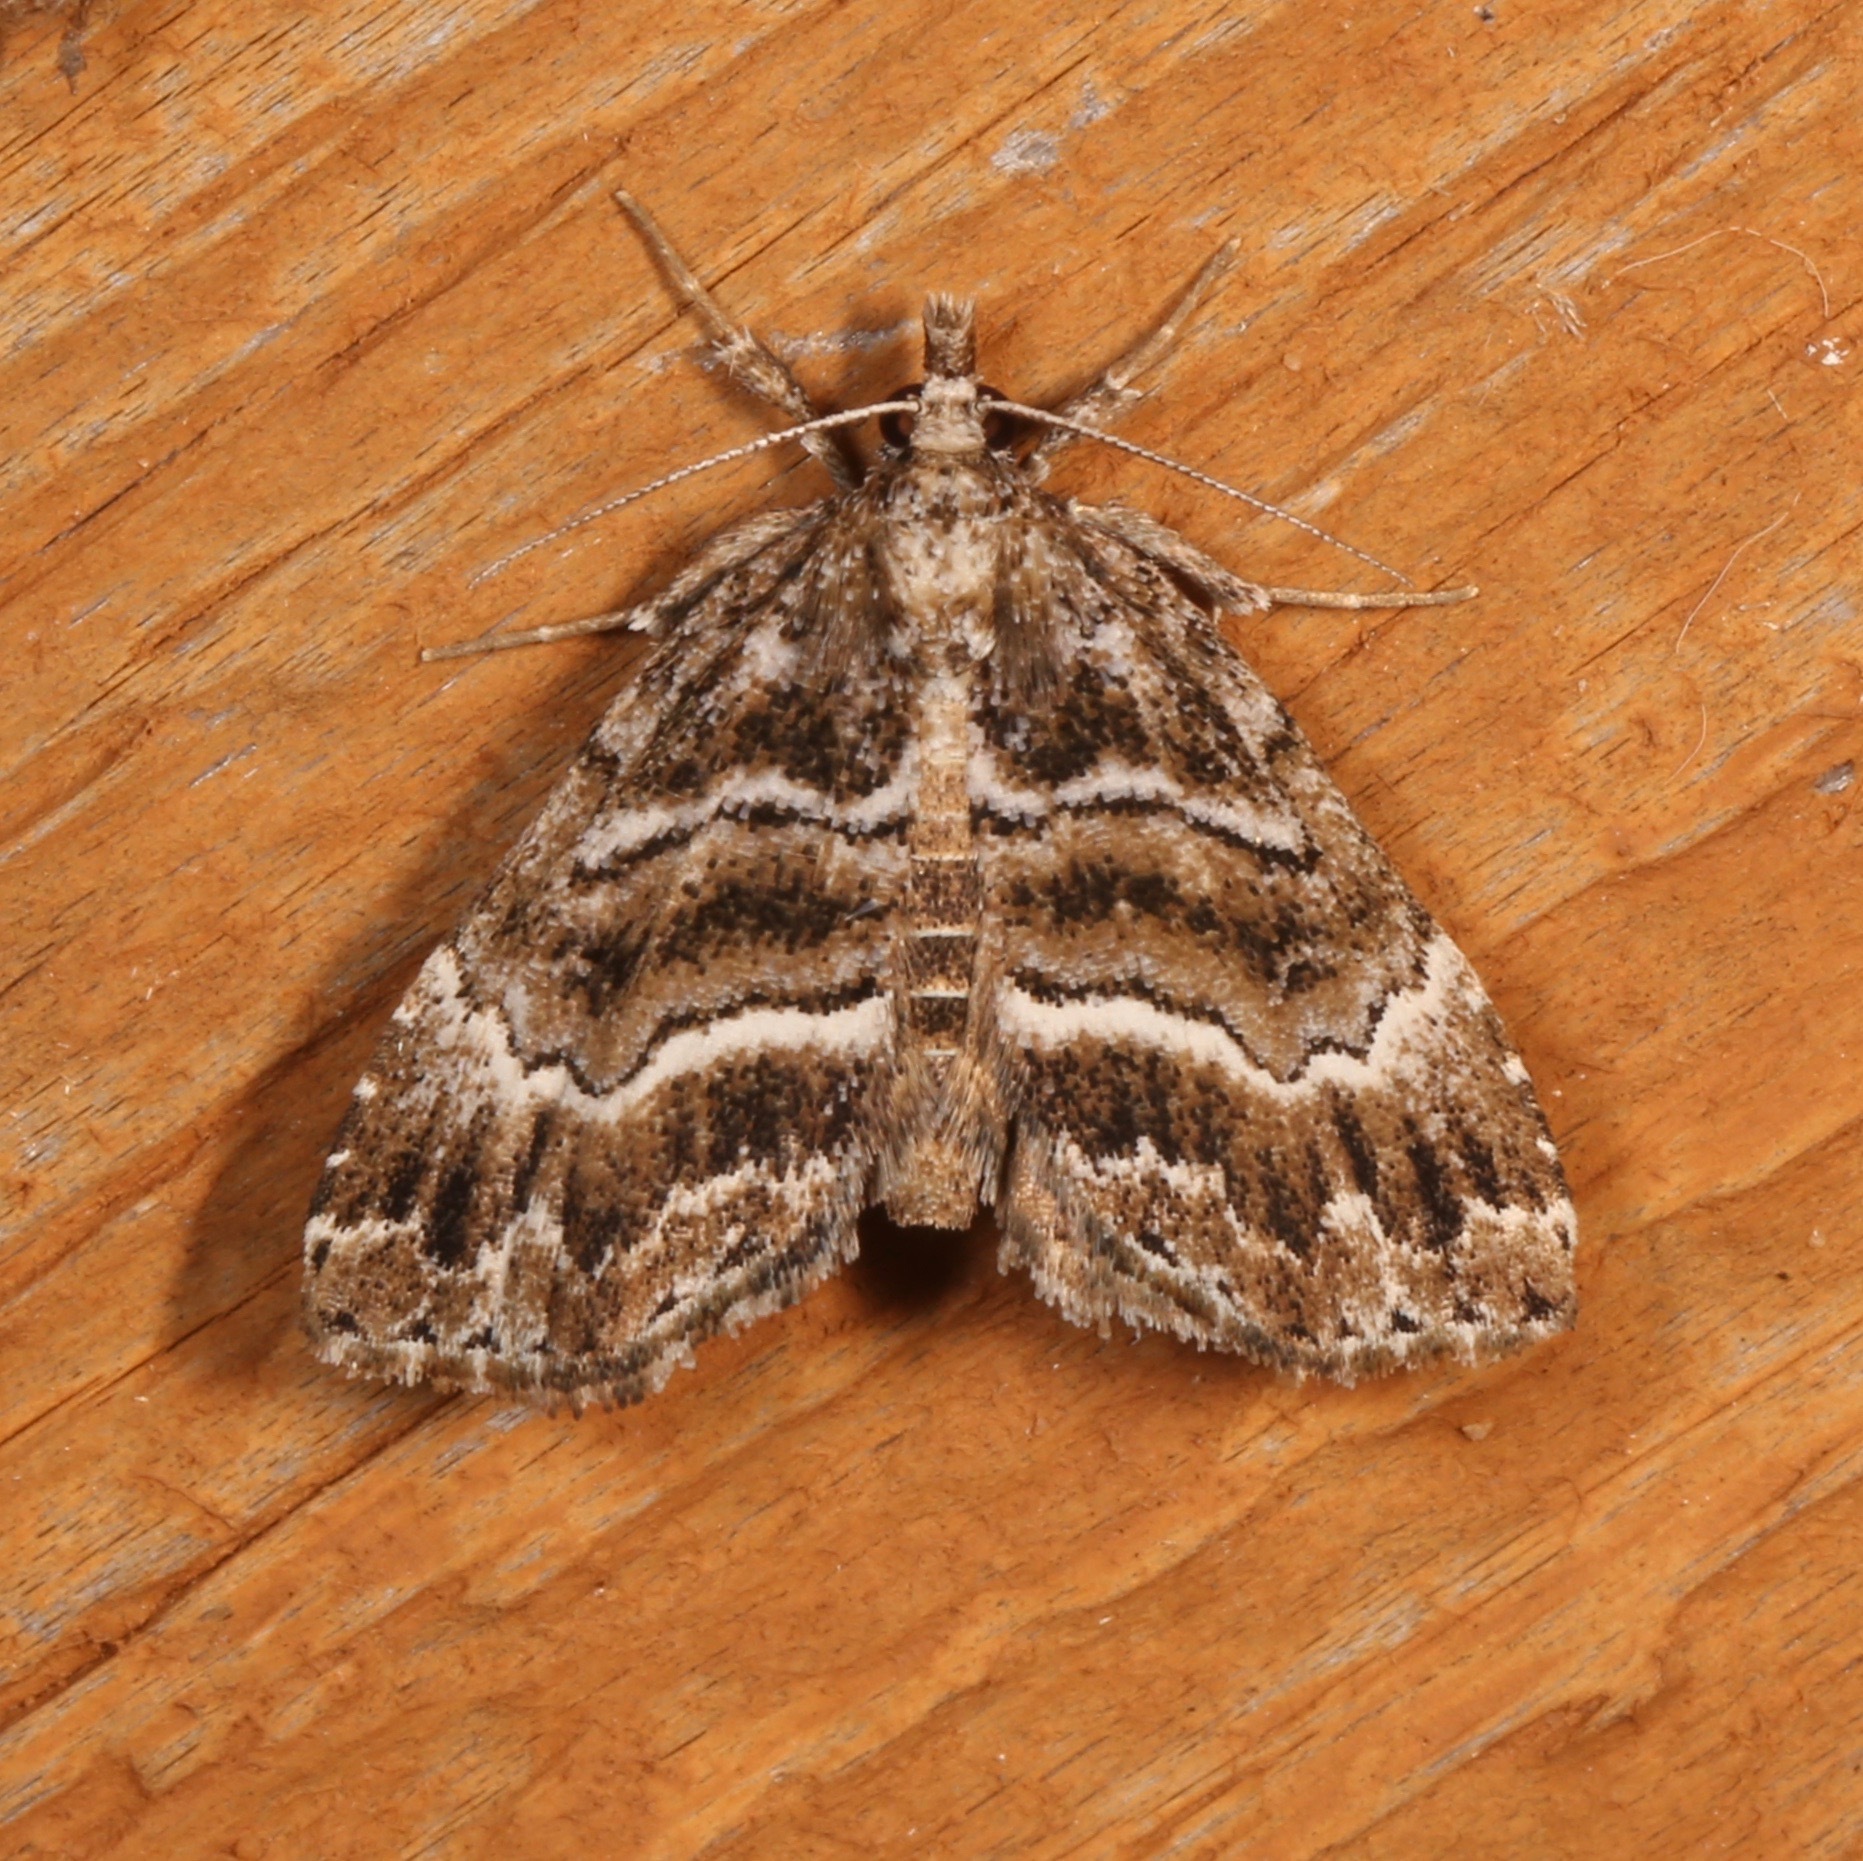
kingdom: Animalia
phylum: Arthropoda
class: Insecta
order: Lepidoptera
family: Erebidae
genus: Cutina
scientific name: Cutina arcuata
